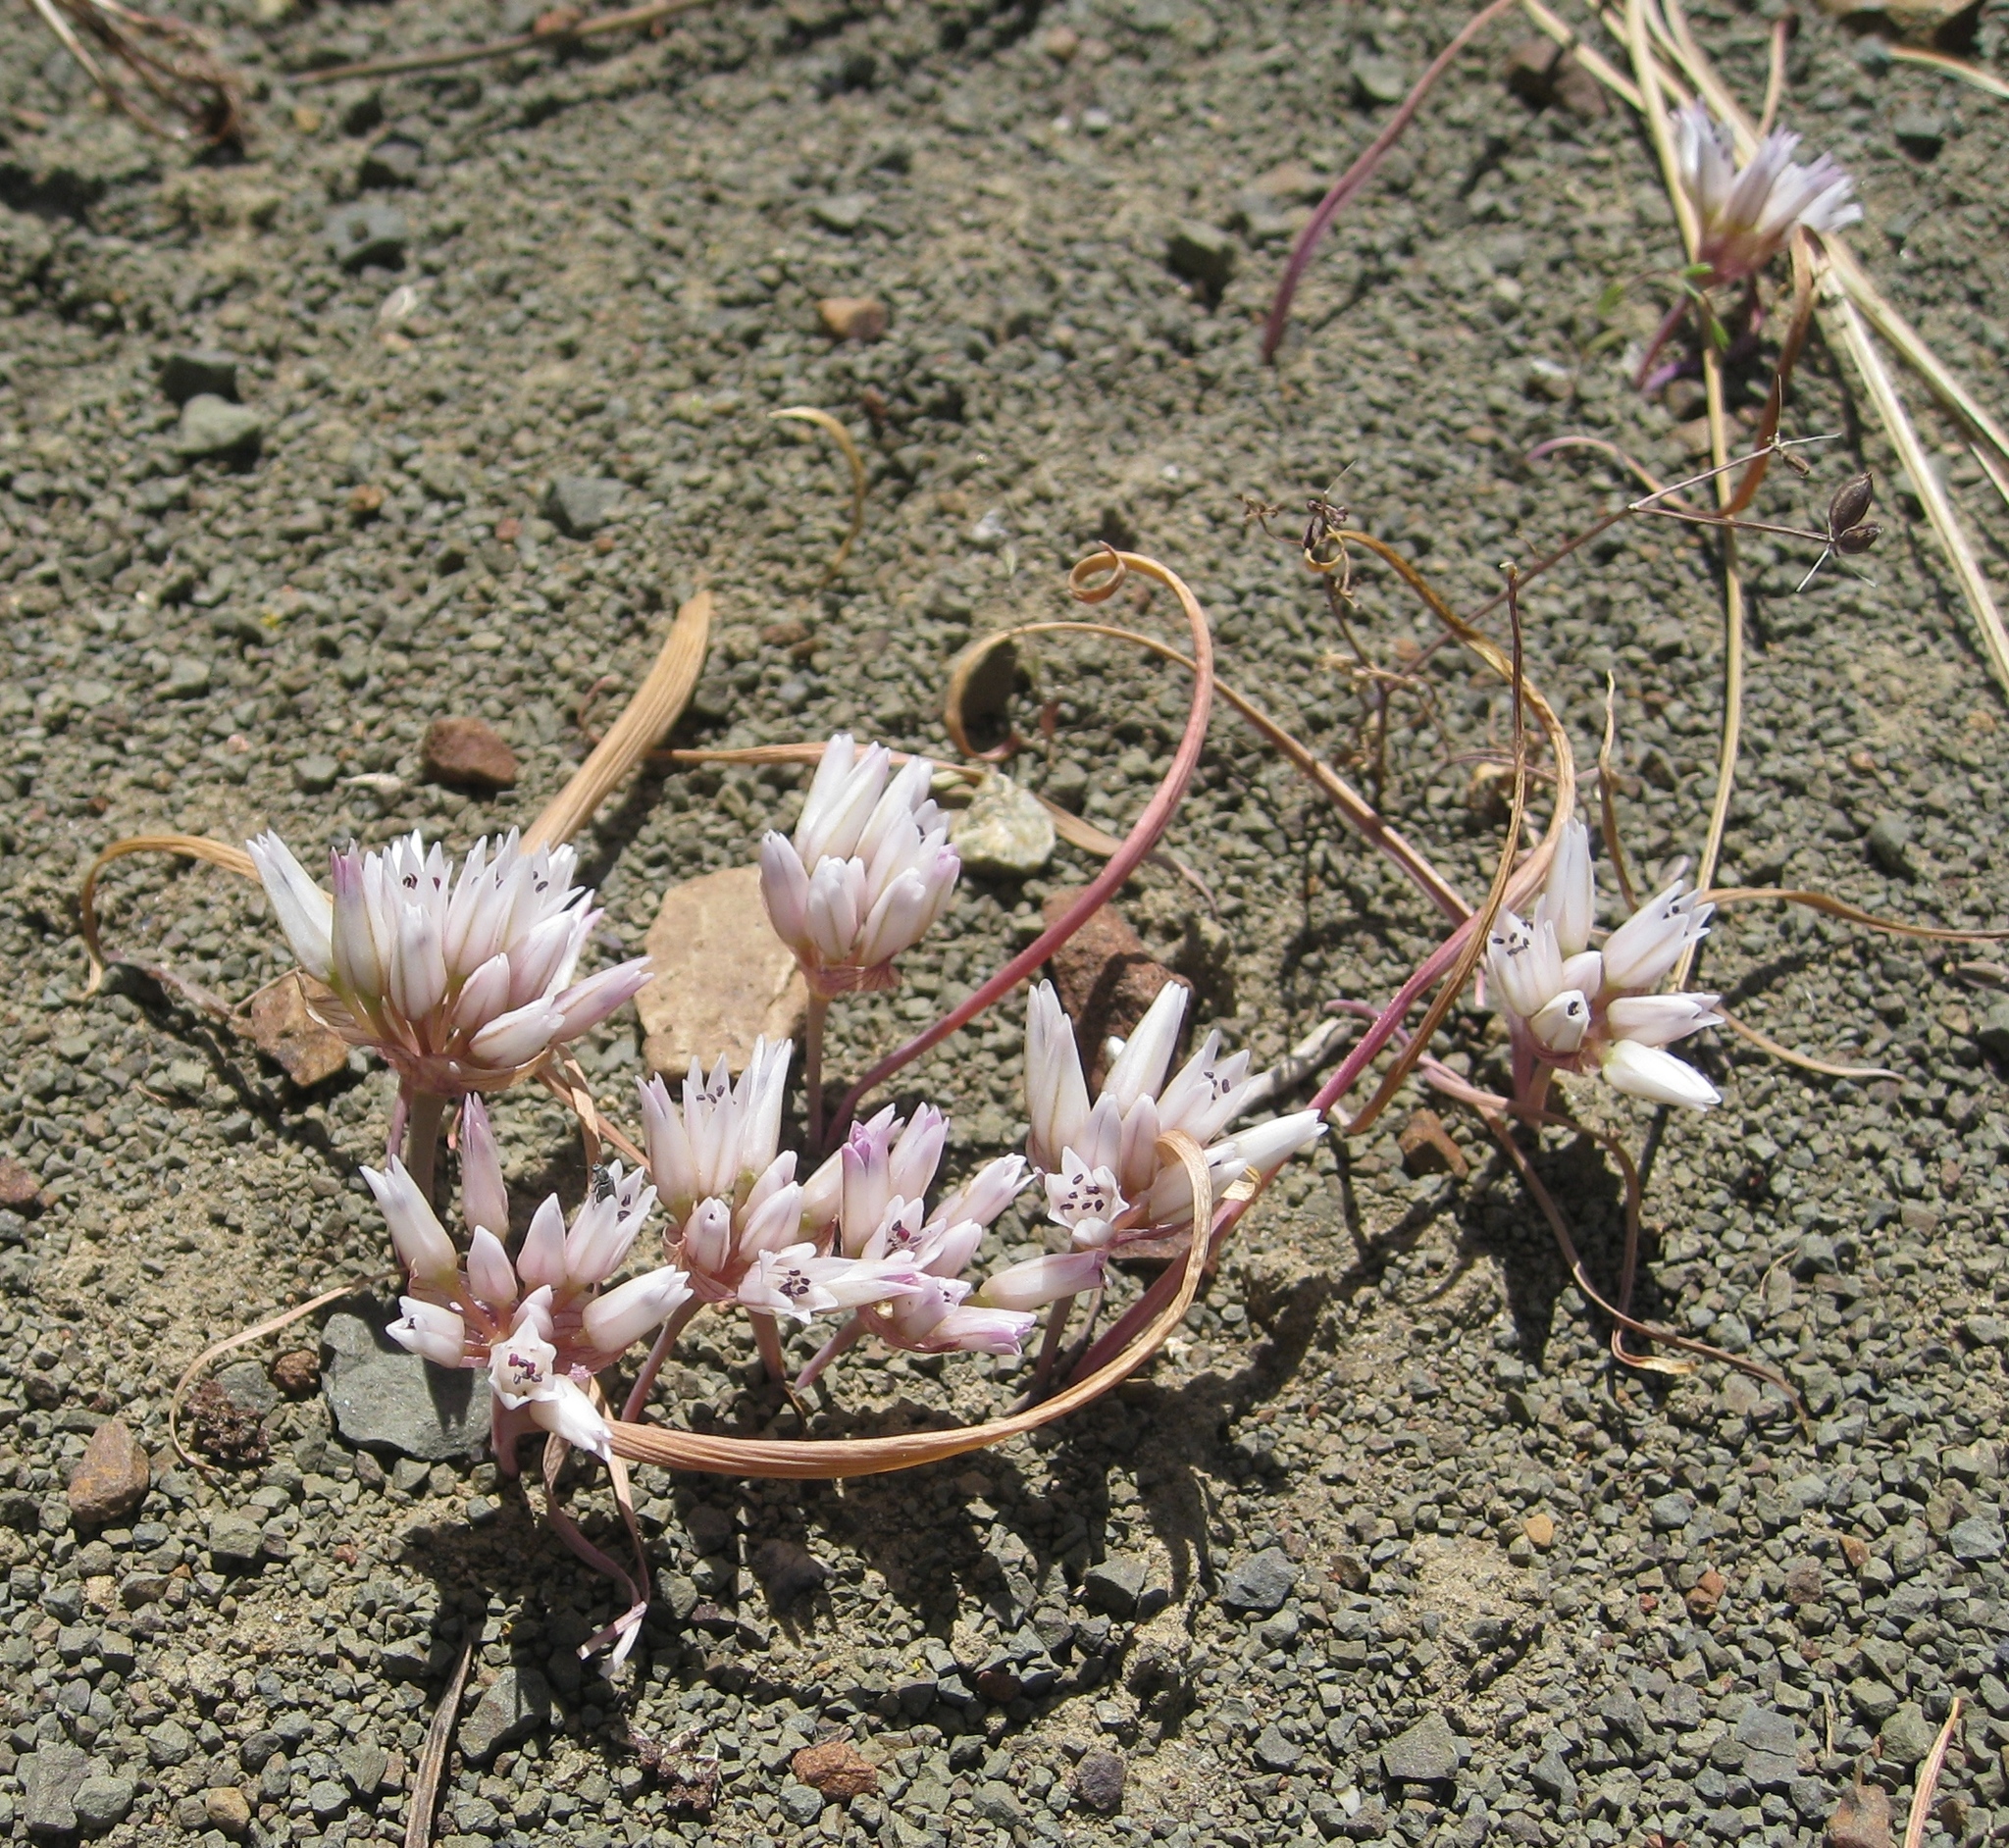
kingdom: Plantae
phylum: Tracheophyta
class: Liliopsida
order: Asparagales
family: Amaryllidaceae
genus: Allium
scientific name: Allium crenulatum
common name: Olympic onion
